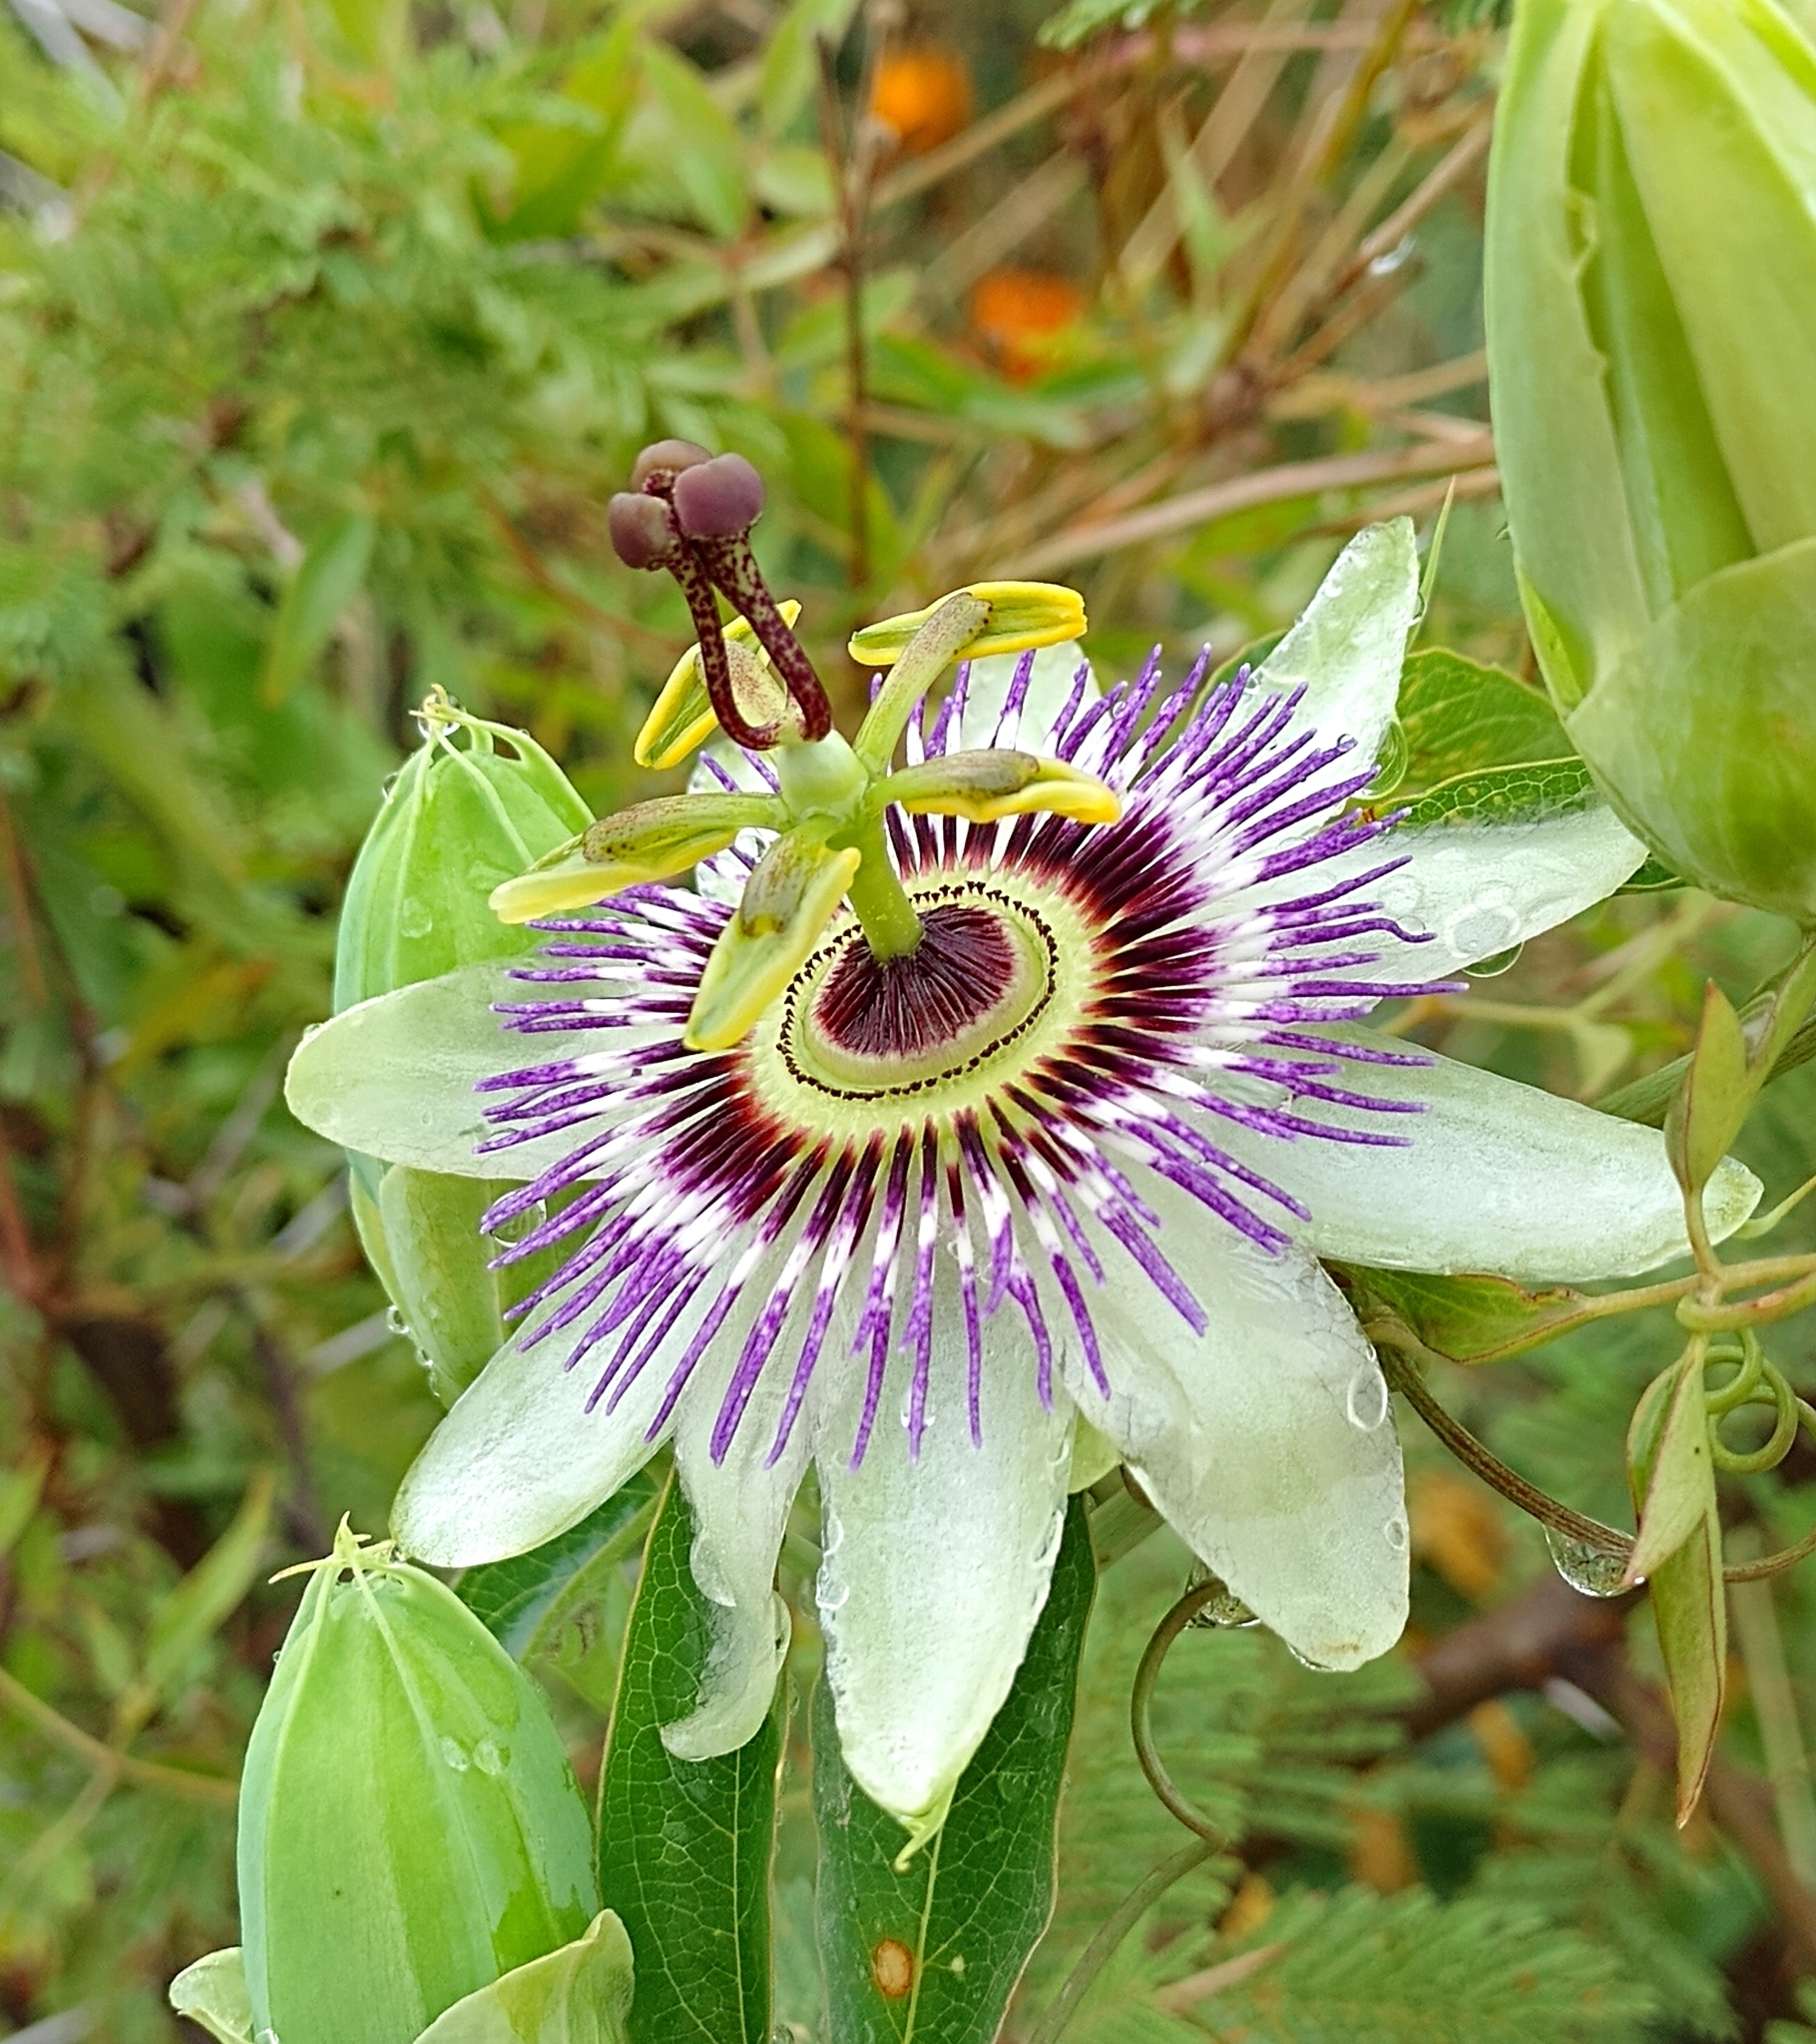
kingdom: Plantae
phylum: Tracheophyta
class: Magnoliopsida
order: Malpighiales
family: Passifloraceae
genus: Passiflora
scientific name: Passiflora caerulea
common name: Blue passionflower
